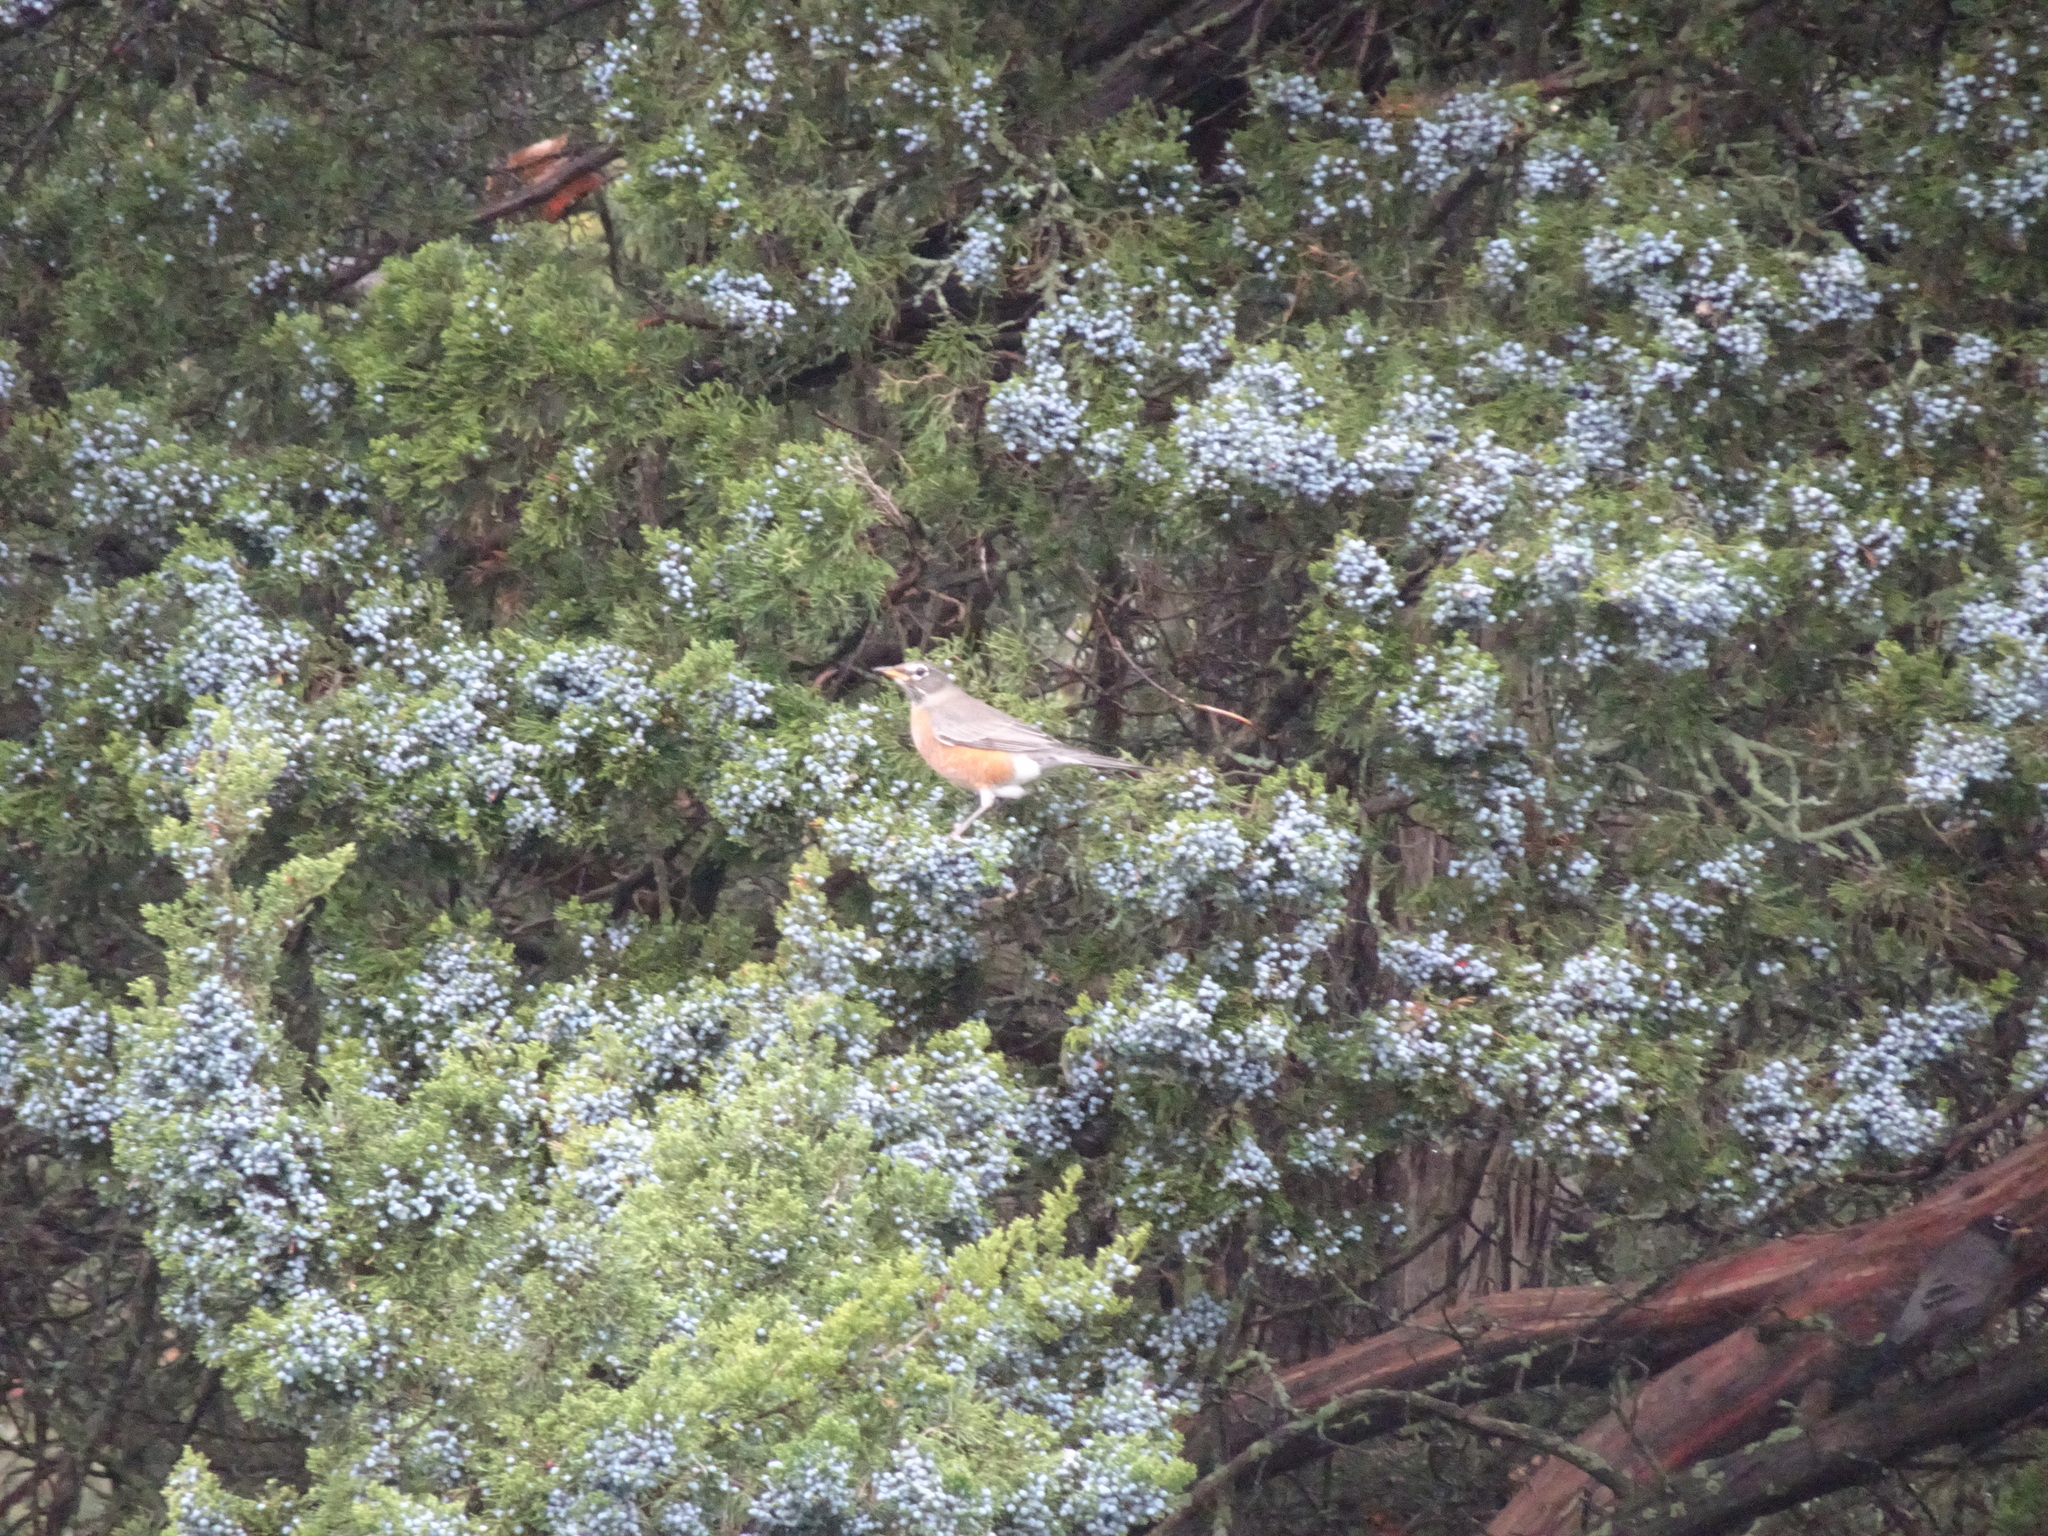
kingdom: Animalia
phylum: Chordata
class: Aves
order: Passeriformes
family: Turdidae
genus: Turdus
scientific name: Turdus migratorius
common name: American robin
